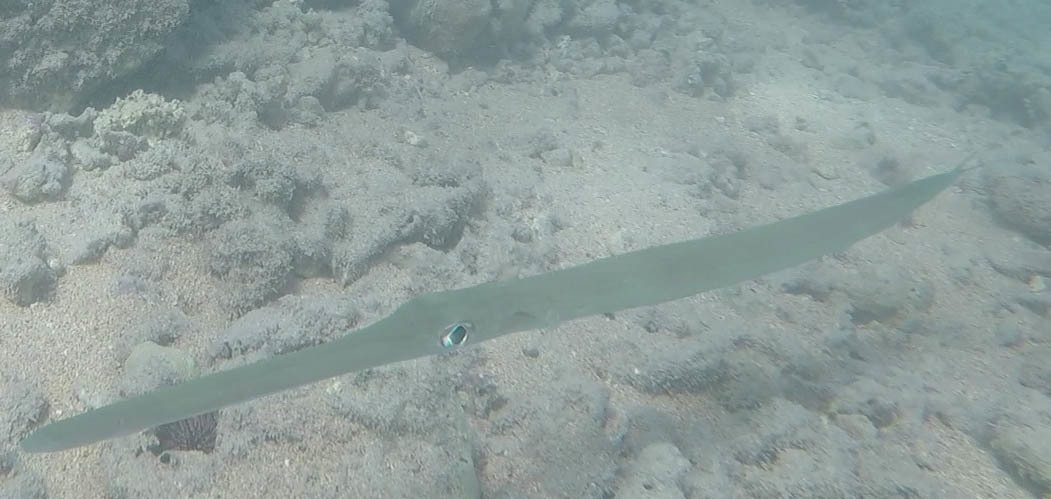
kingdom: Animalia
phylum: Chordata
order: Syngnathiformes
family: Fistulariidae
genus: Fistularia
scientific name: Fistularia commersonii
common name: Bluespotted cornetfish
